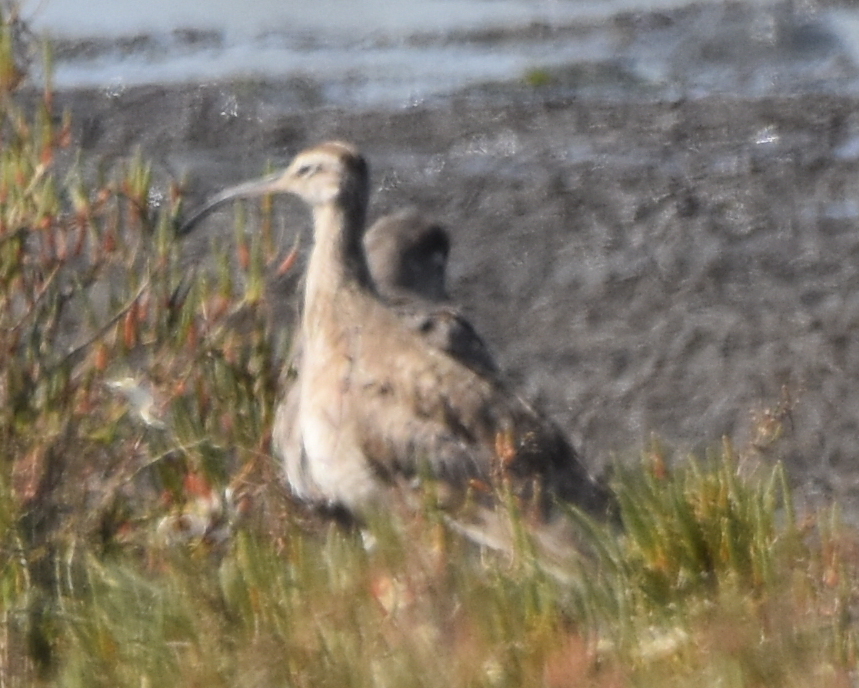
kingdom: Animalia
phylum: Chordata
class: Aves
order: Charadriiformes
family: Scolopacidae
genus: Numenius
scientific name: Numenius phaeopus
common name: Whimbrel
